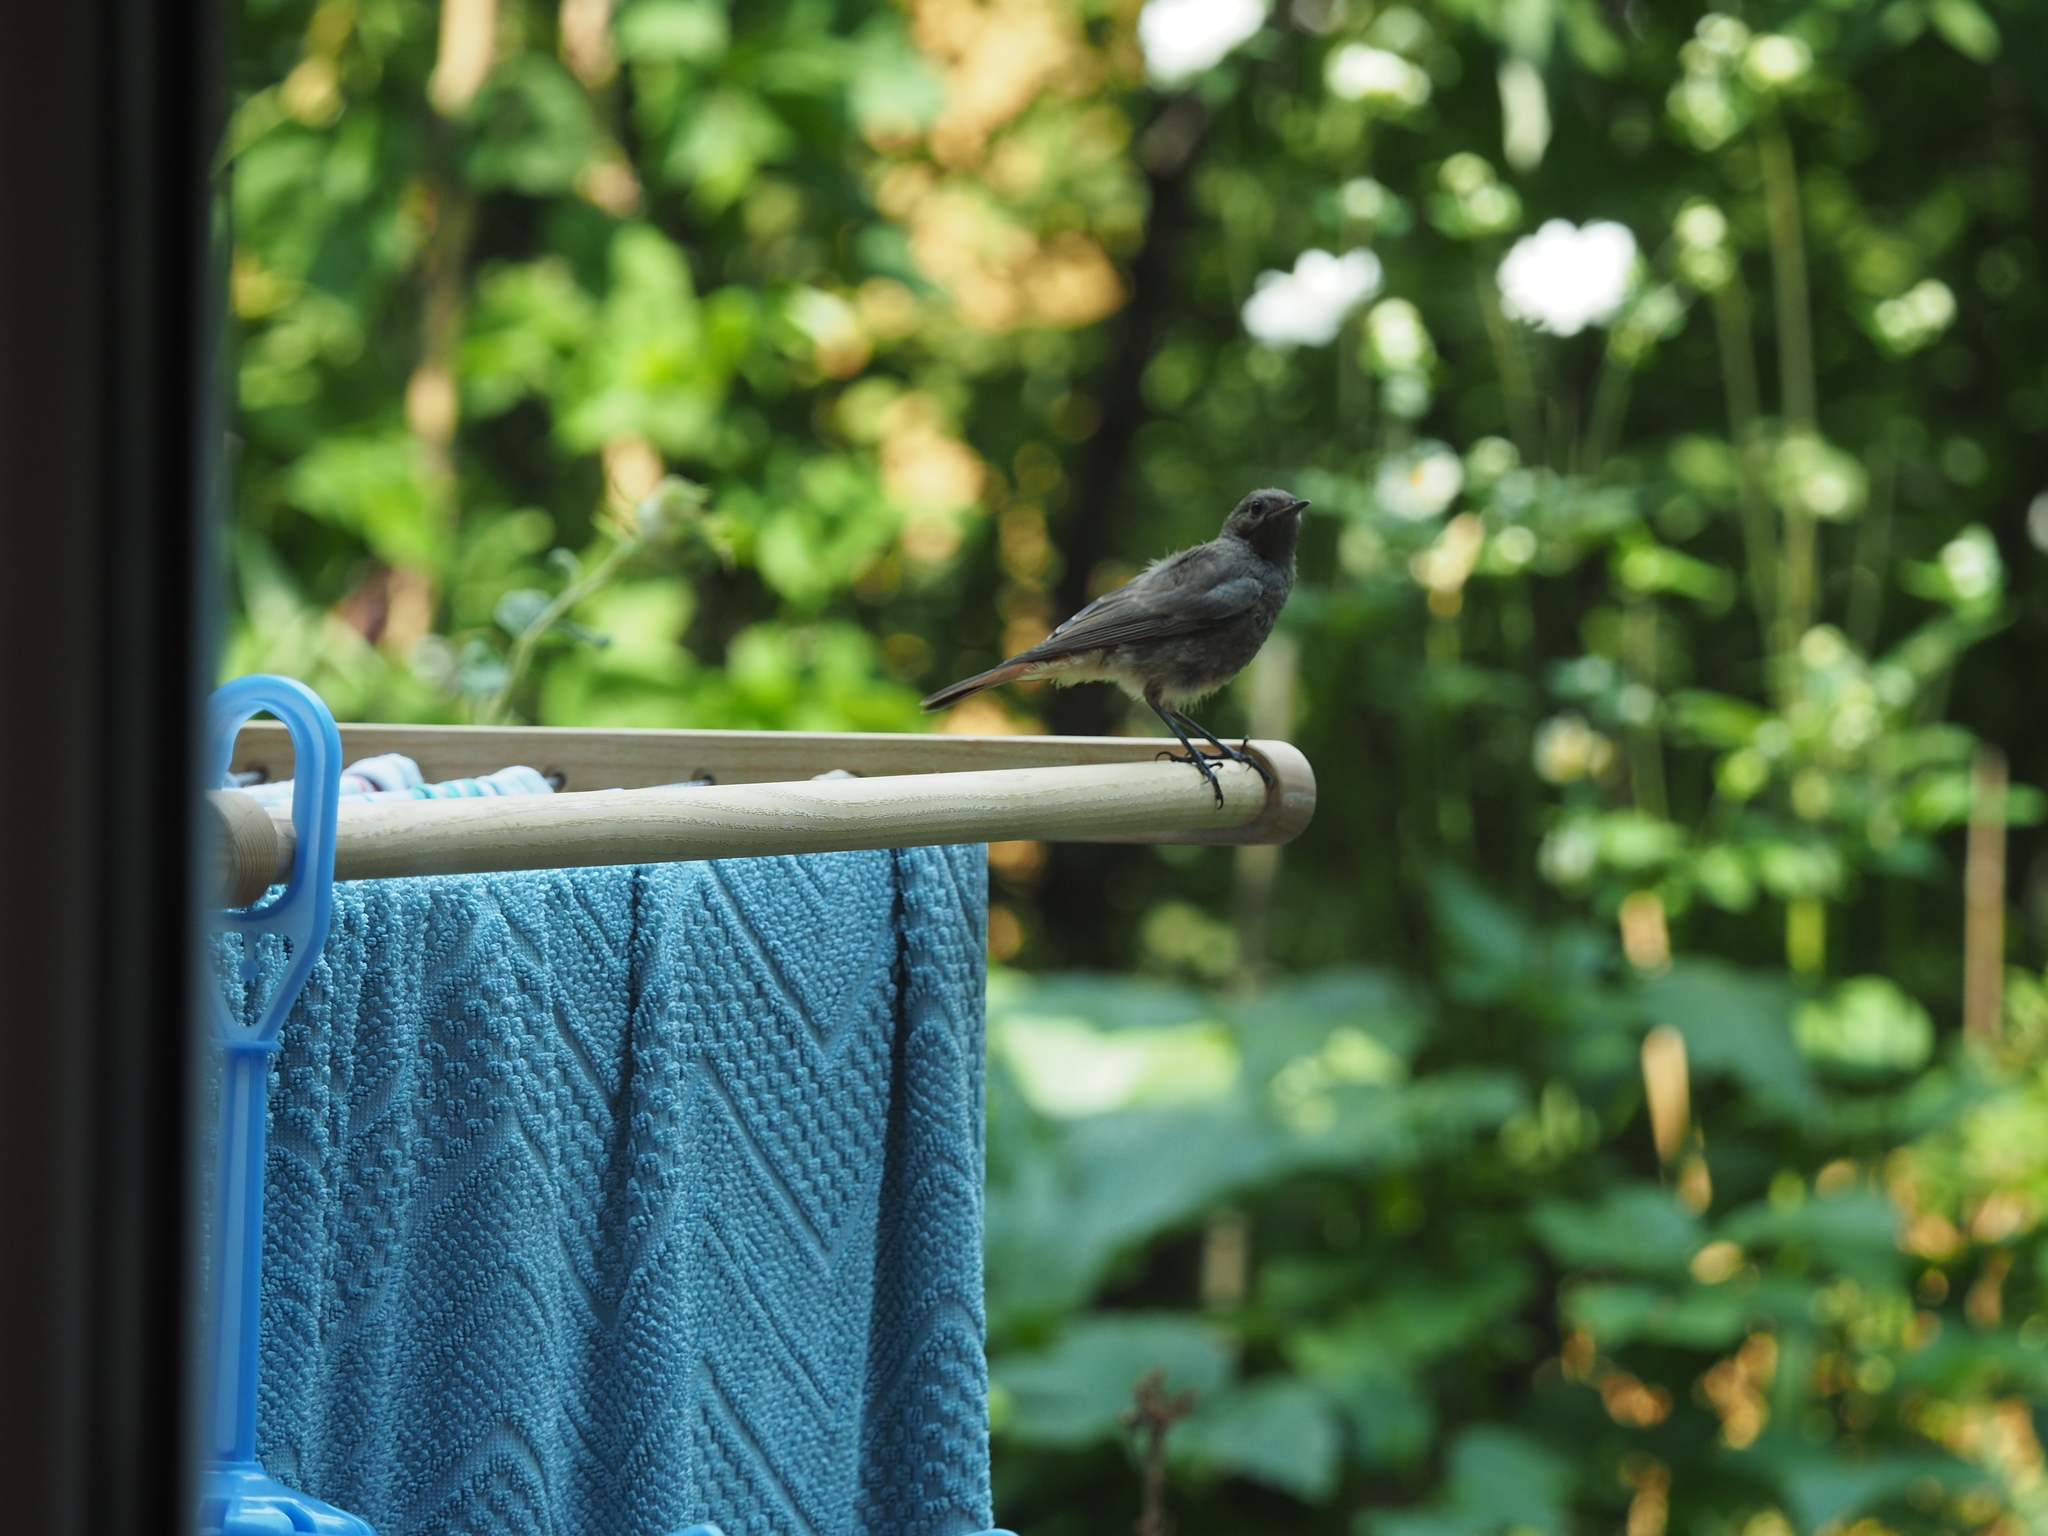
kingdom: Animalia
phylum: Chordata
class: Aves
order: Passeriformes
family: Muscicapidae
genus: Phoenicurus
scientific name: Phoenicurus ochruros
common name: Black redstart
